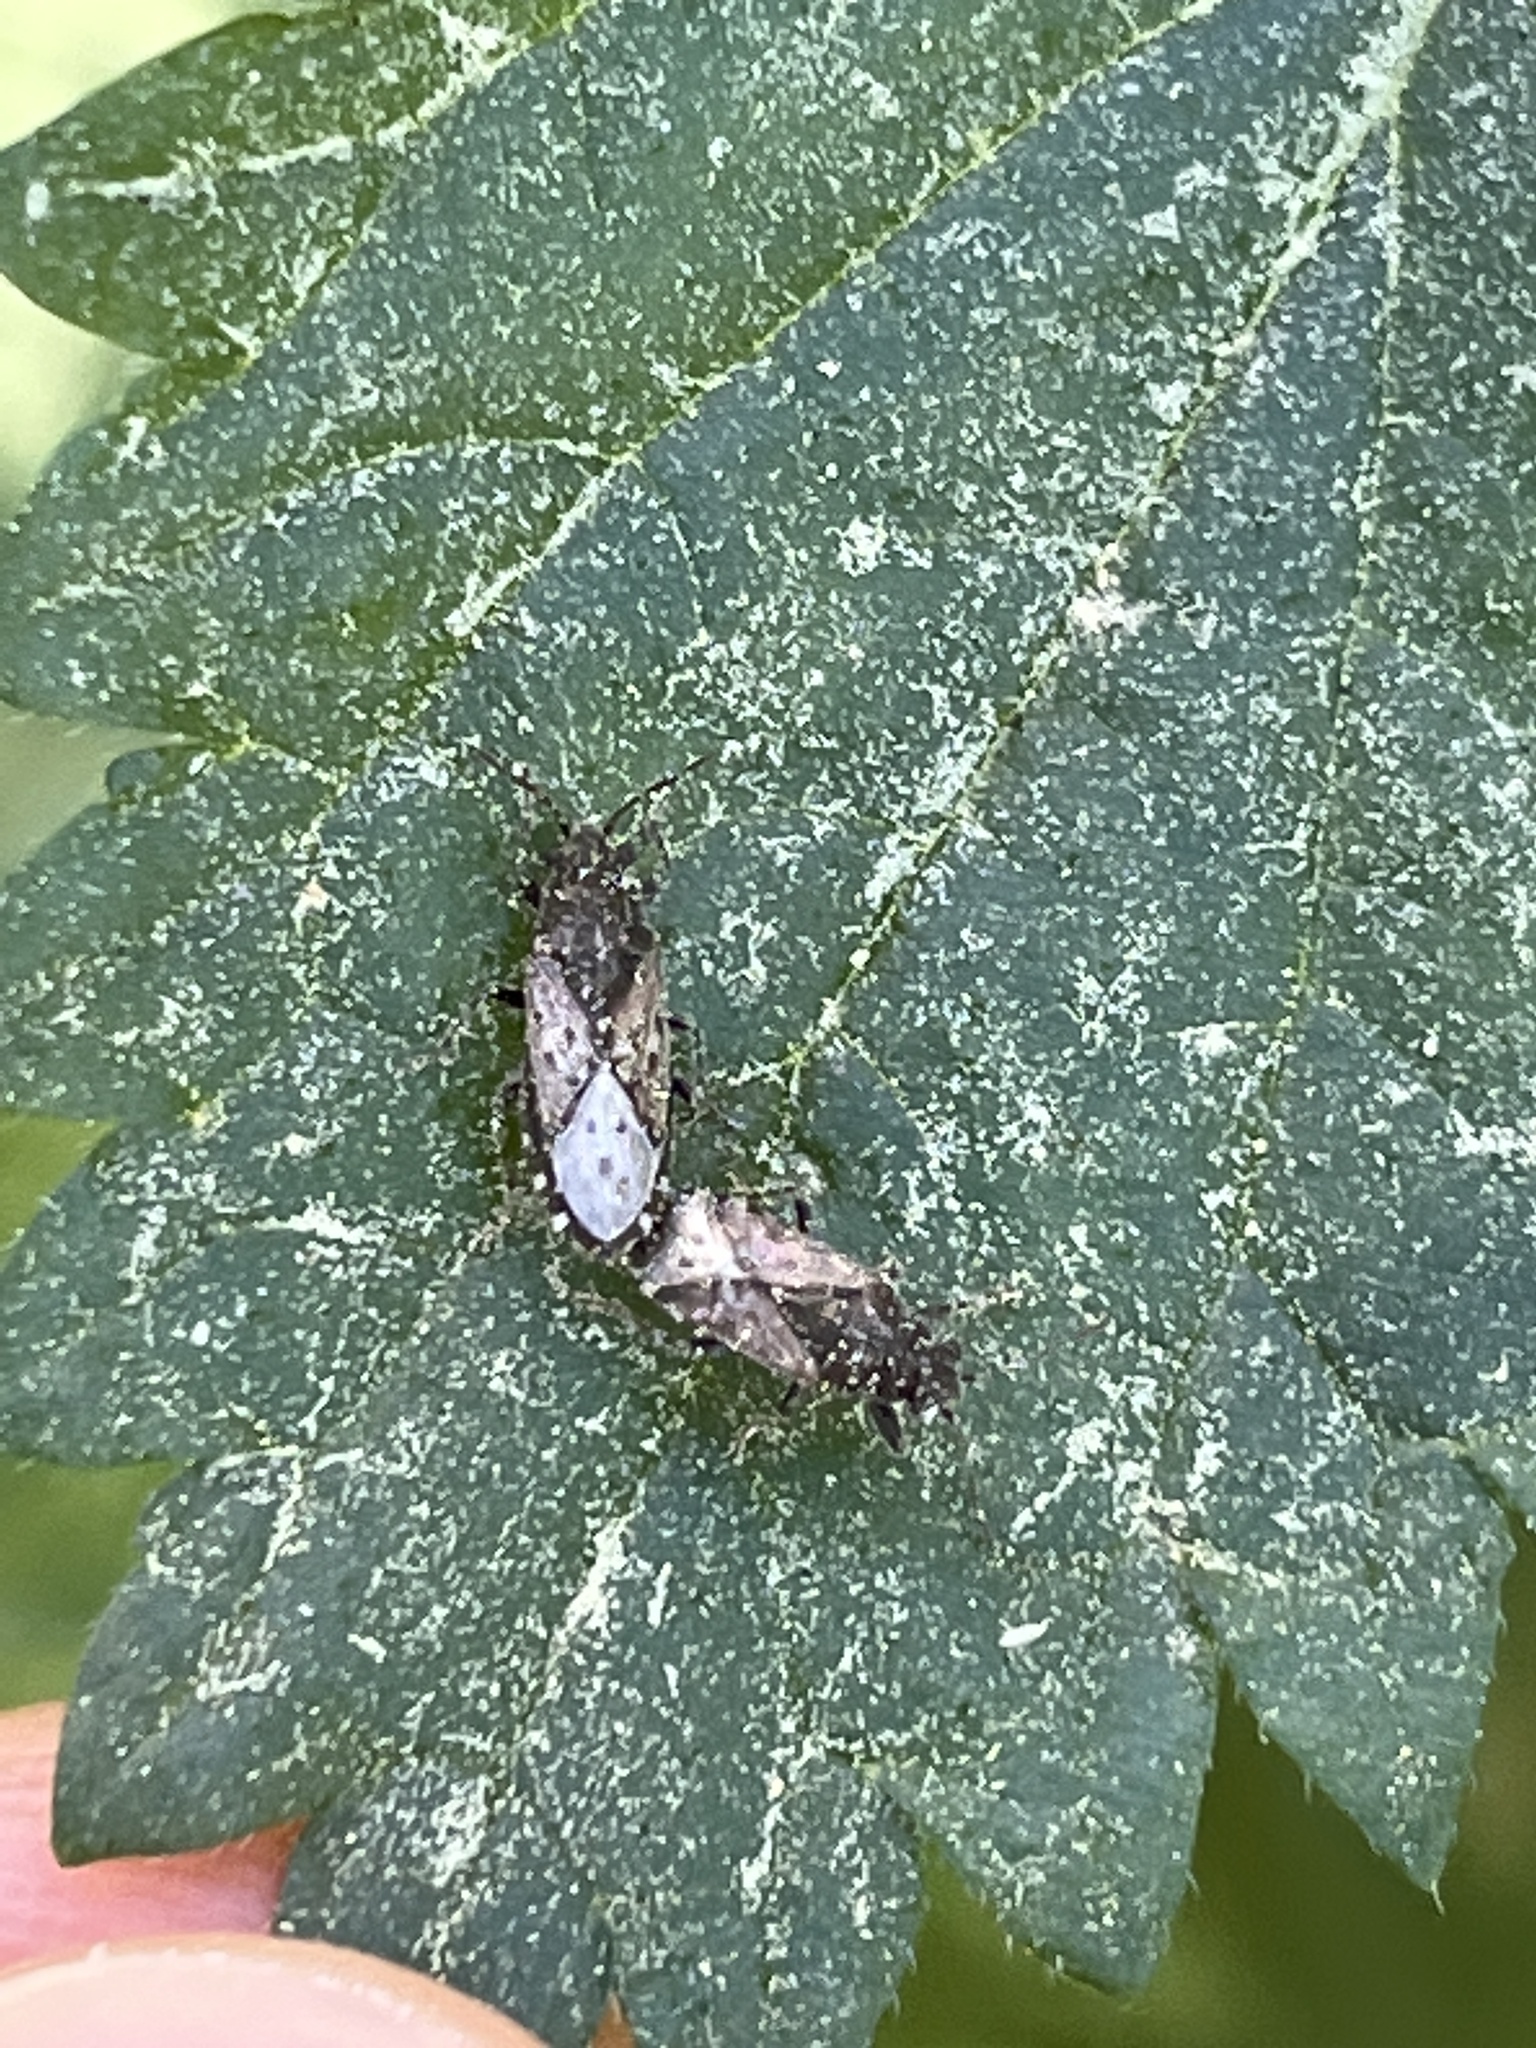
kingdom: Animalia
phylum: Arthropoda
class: Insecta
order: Hemiptera
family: Heterogastridae
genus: Heterogaster
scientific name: Heterogaster urticae
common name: Seed bug
